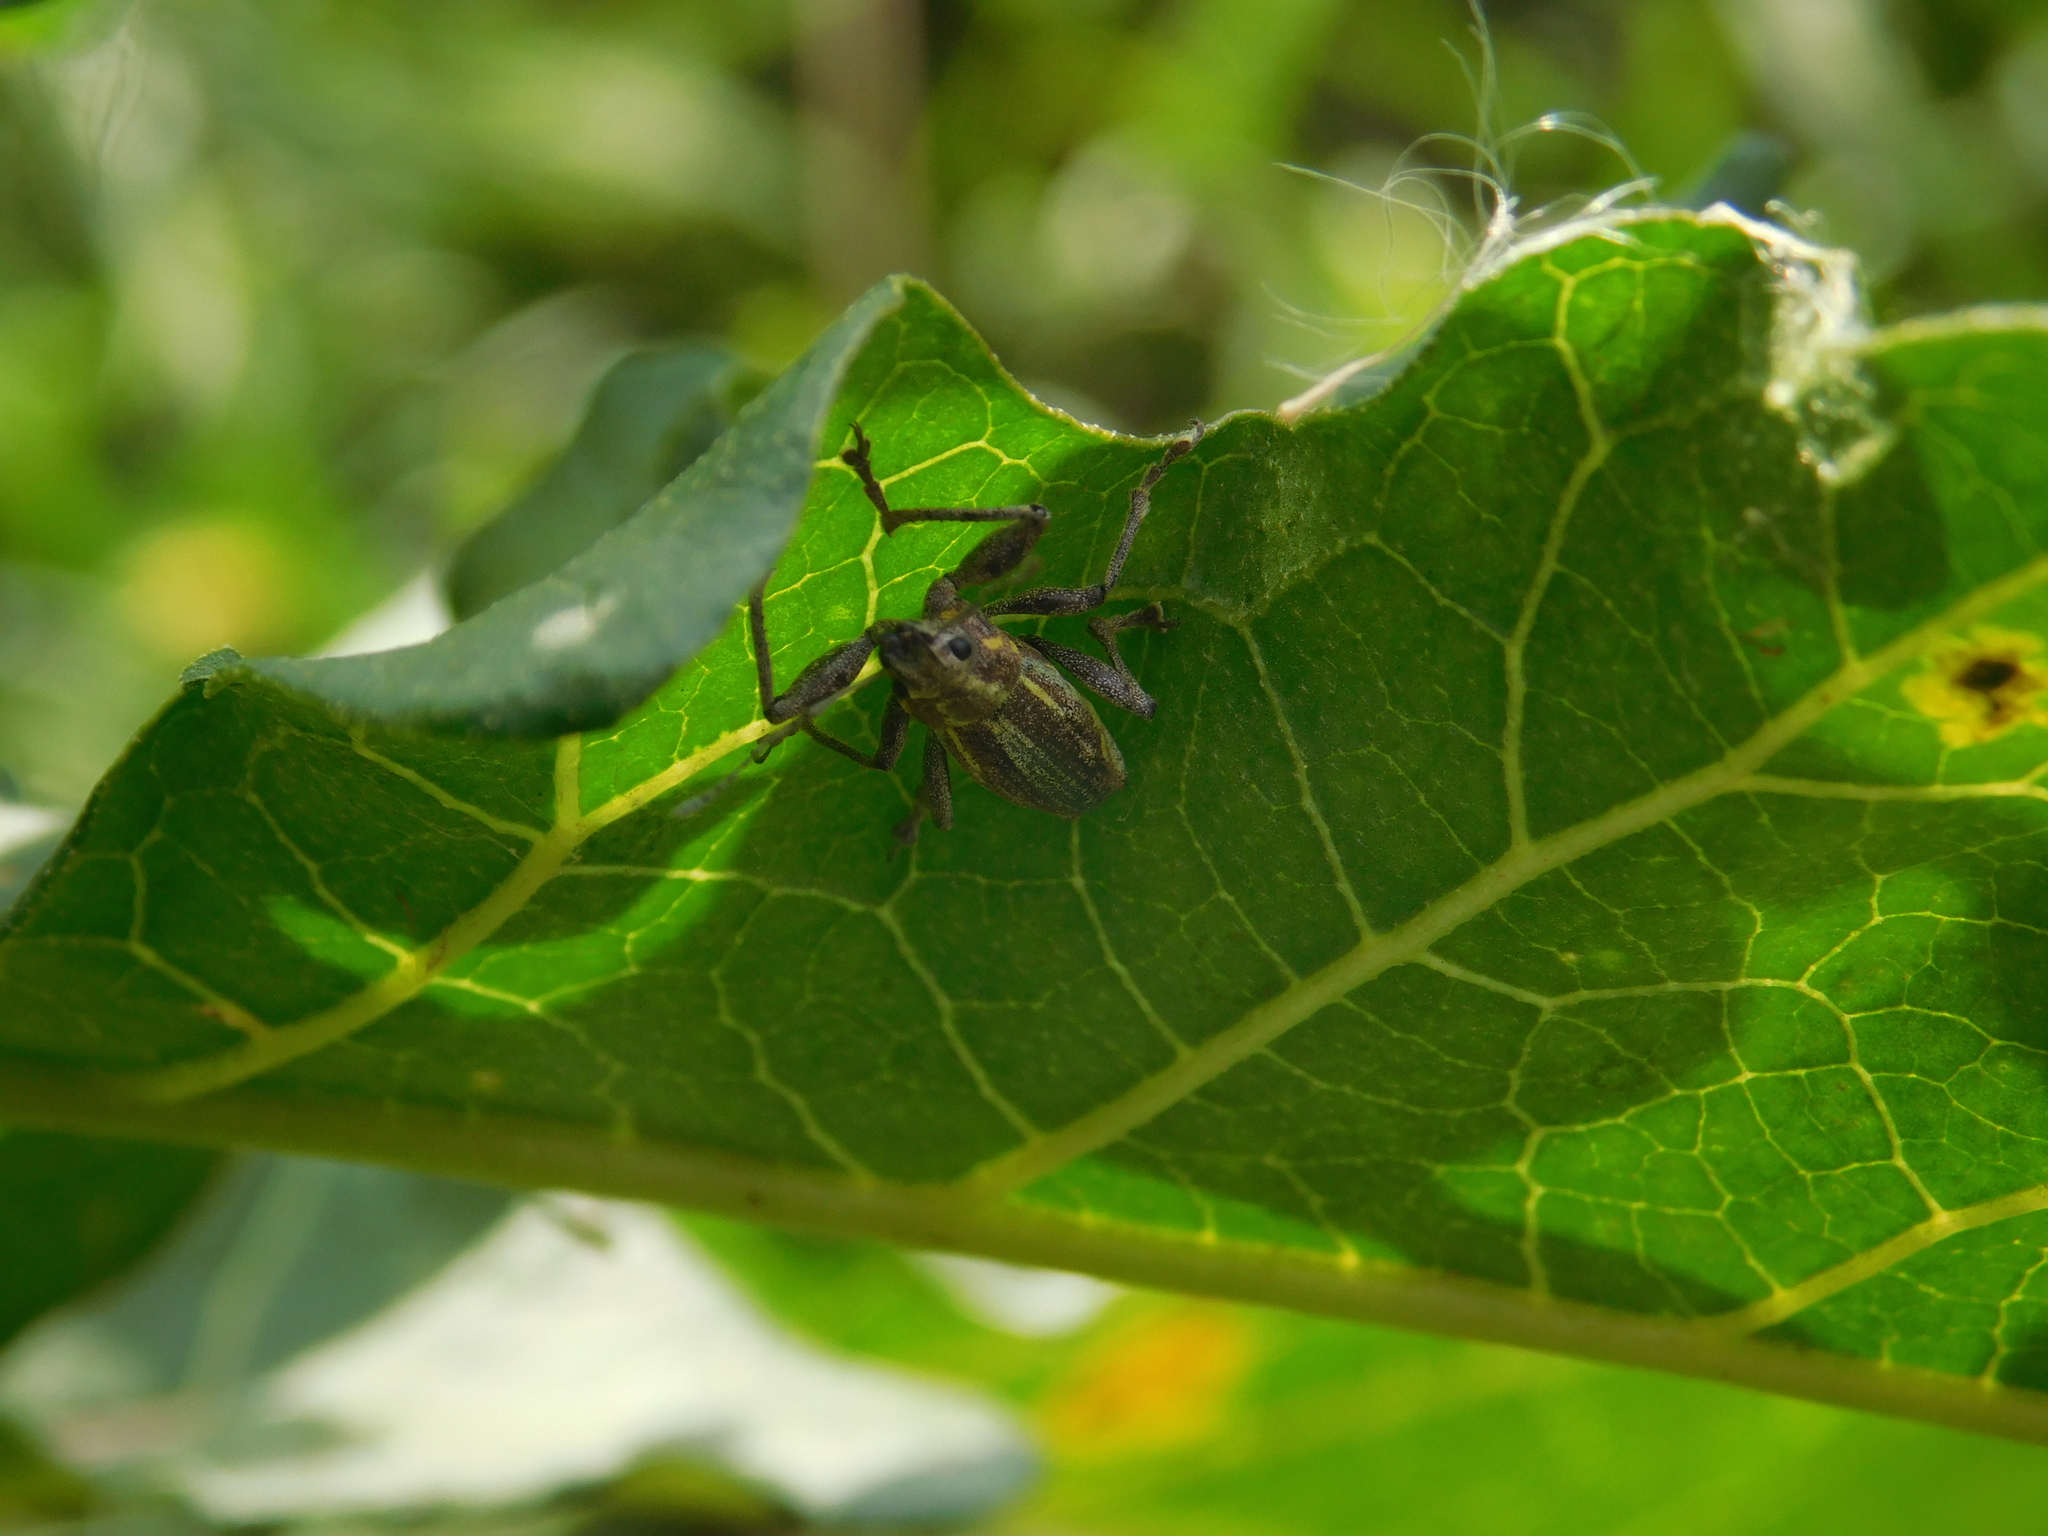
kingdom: Animalia
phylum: Arthropoda
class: Insecta
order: Coleoptera
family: Curculionidae
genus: Naupactus
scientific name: Naupactus xanthographus
